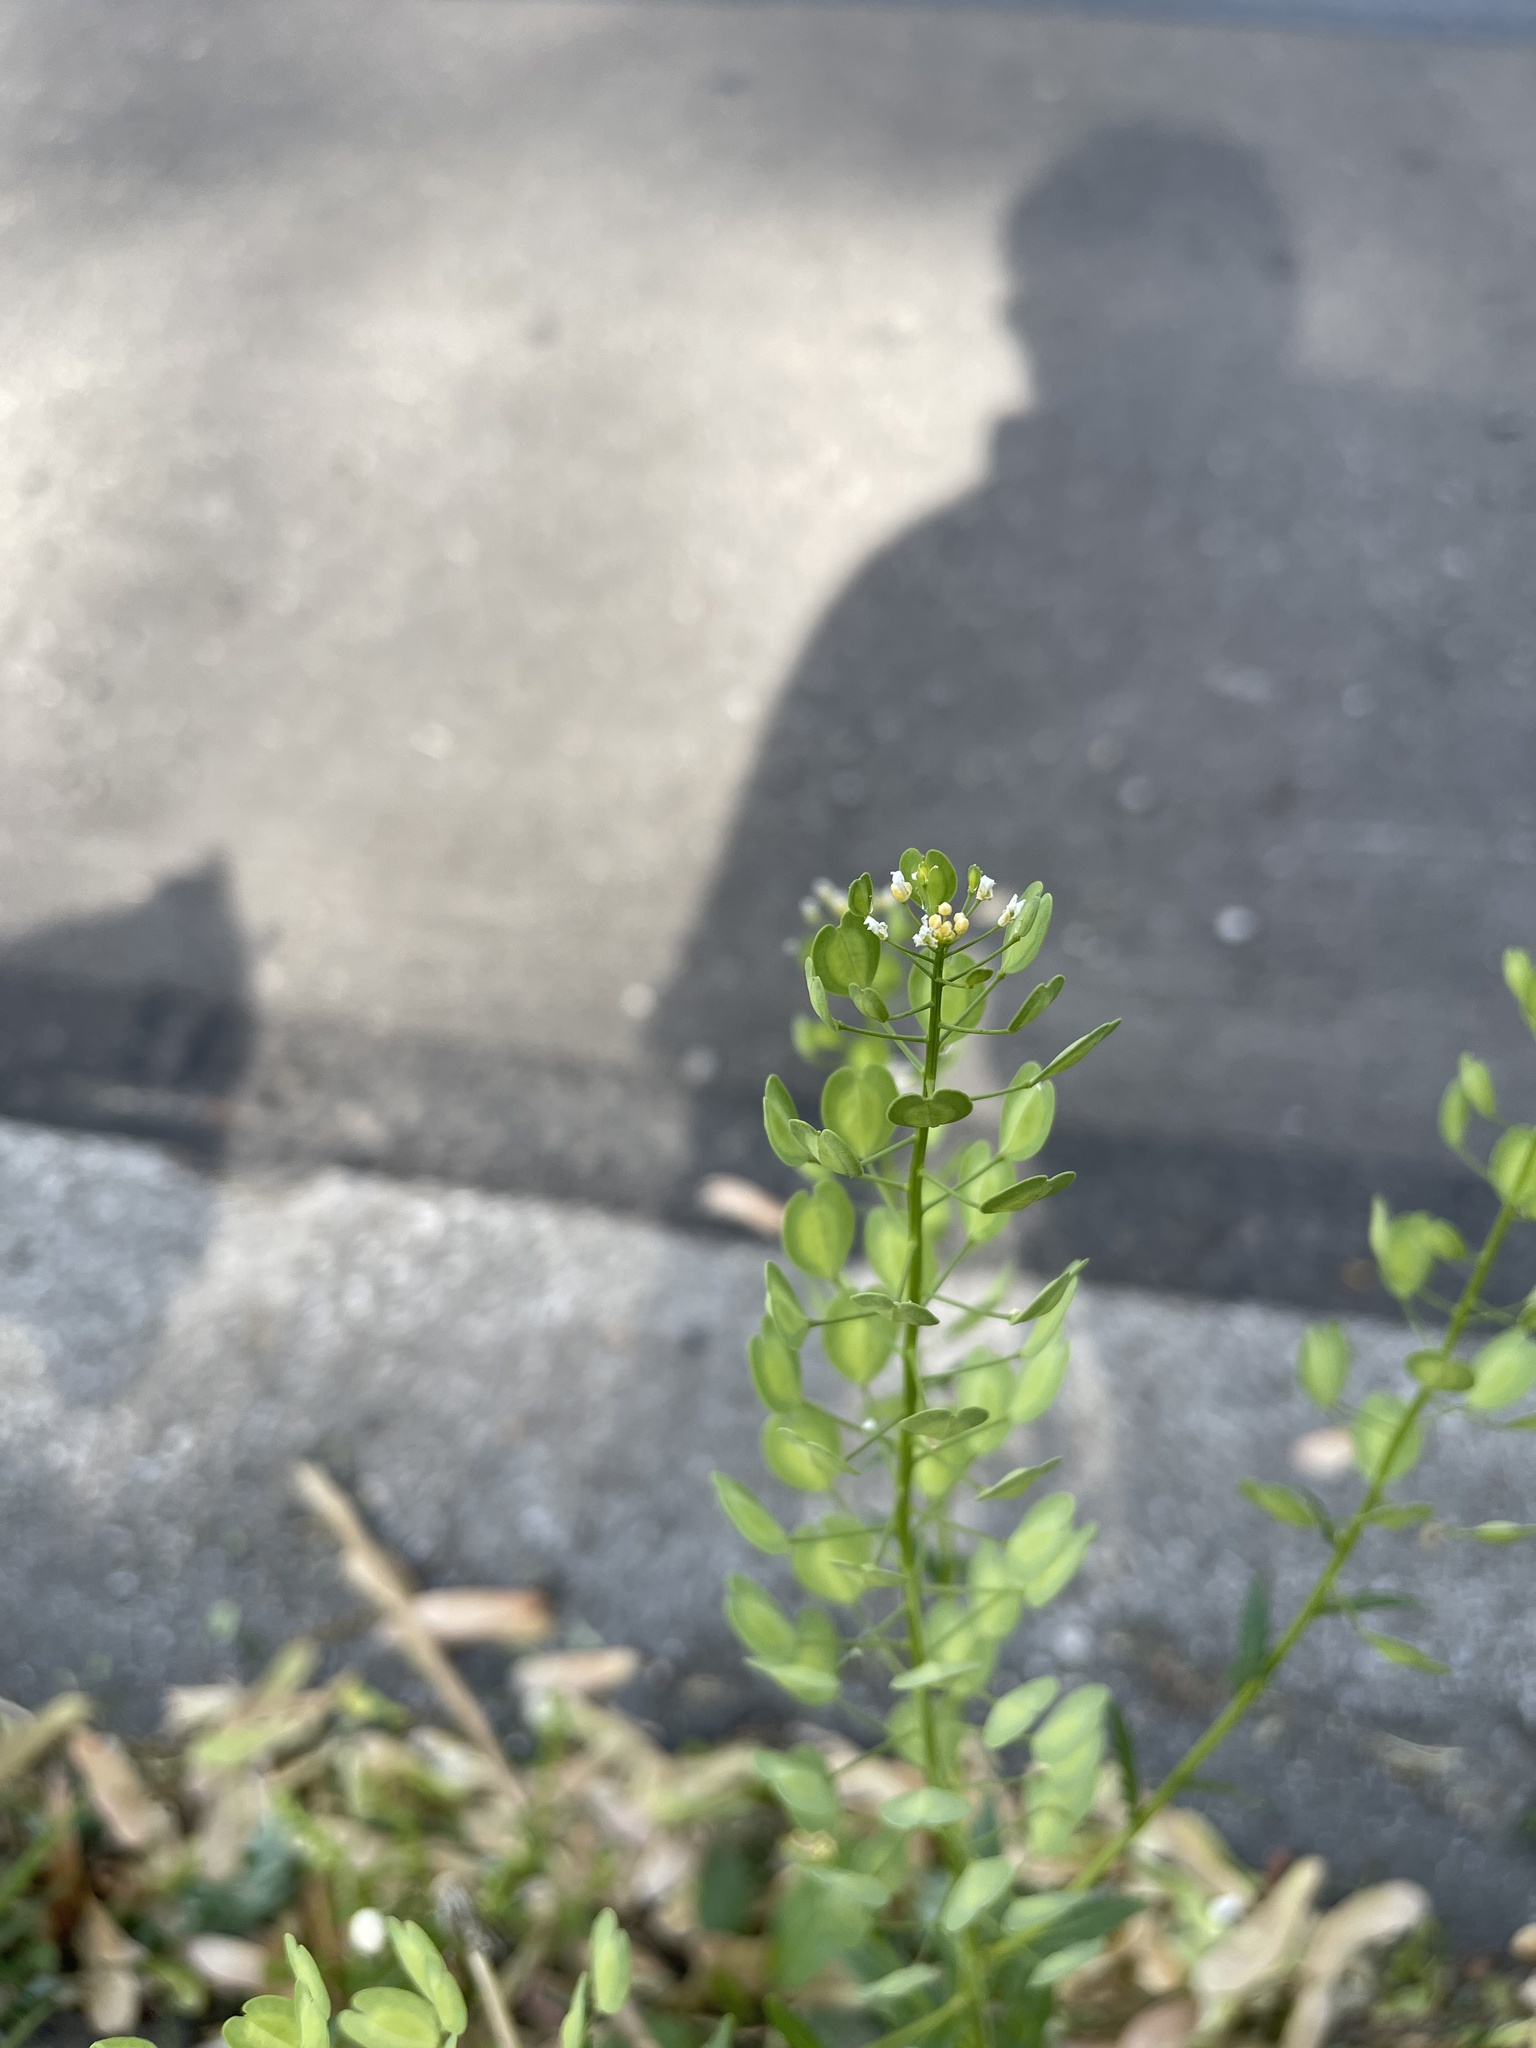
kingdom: Plantae
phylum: Tracheophyta
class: Magnoliopsida
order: Brassicales
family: Brassicaceae
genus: Thlaspi
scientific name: Thlaspi arvense
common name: Field pennycress
